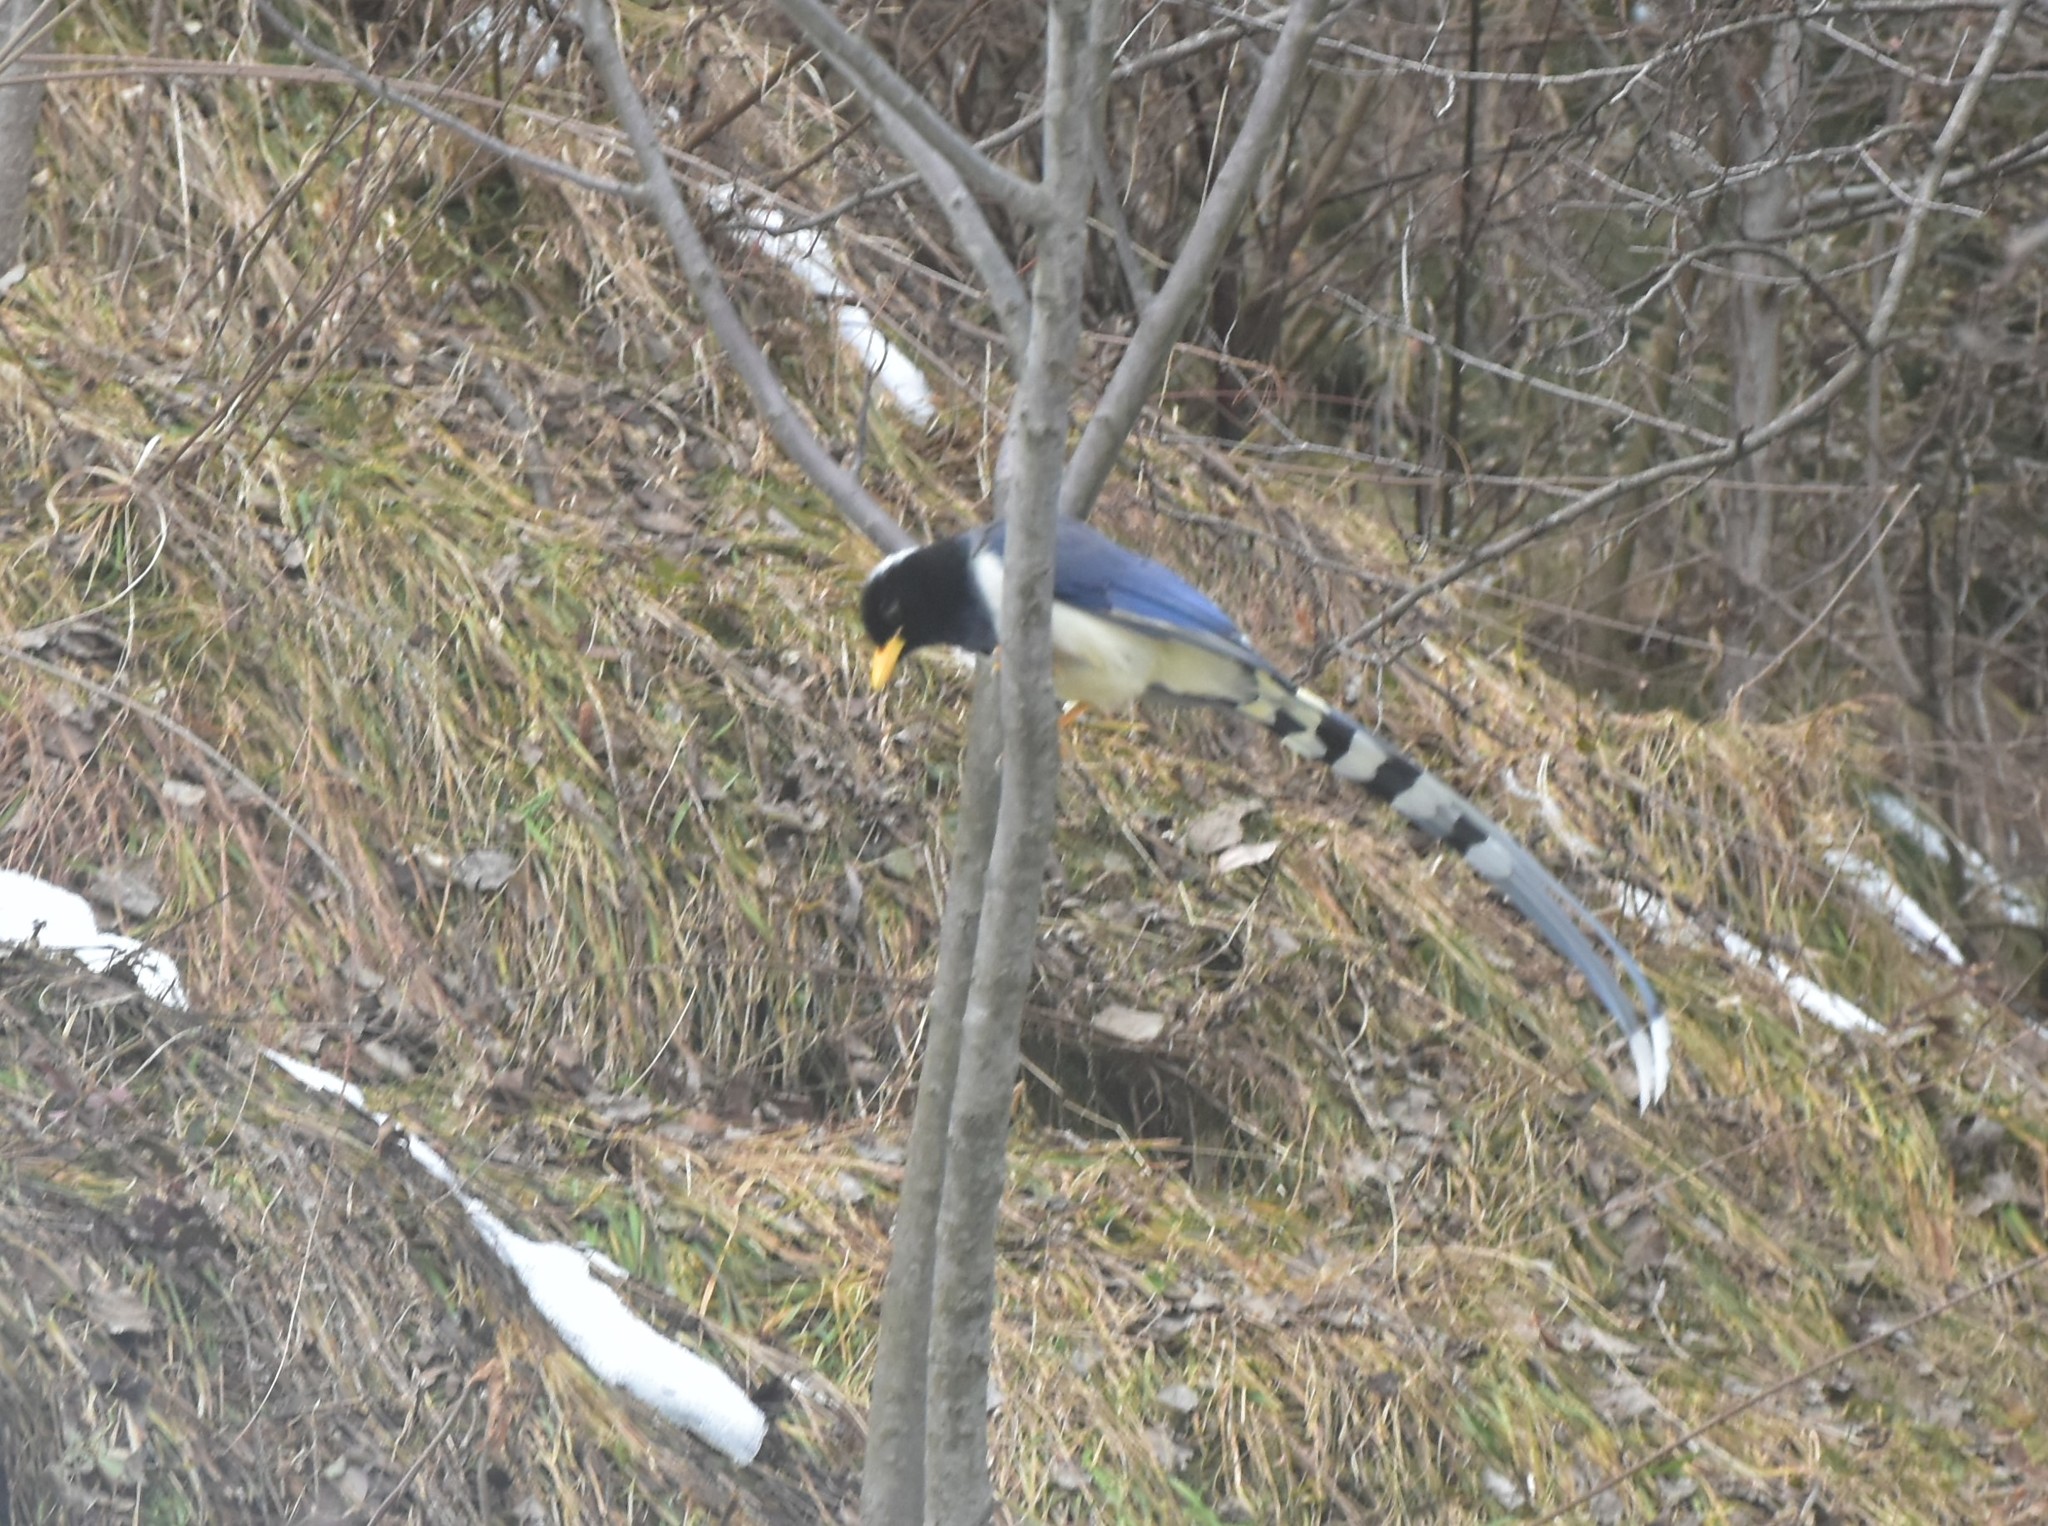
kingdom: Animalia
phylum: Chordata
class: Aves
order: Passeriformes
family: Corvidae
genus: Urocissa
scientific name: Urocissa flavirostris
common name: Yellow-billed blue magpie
